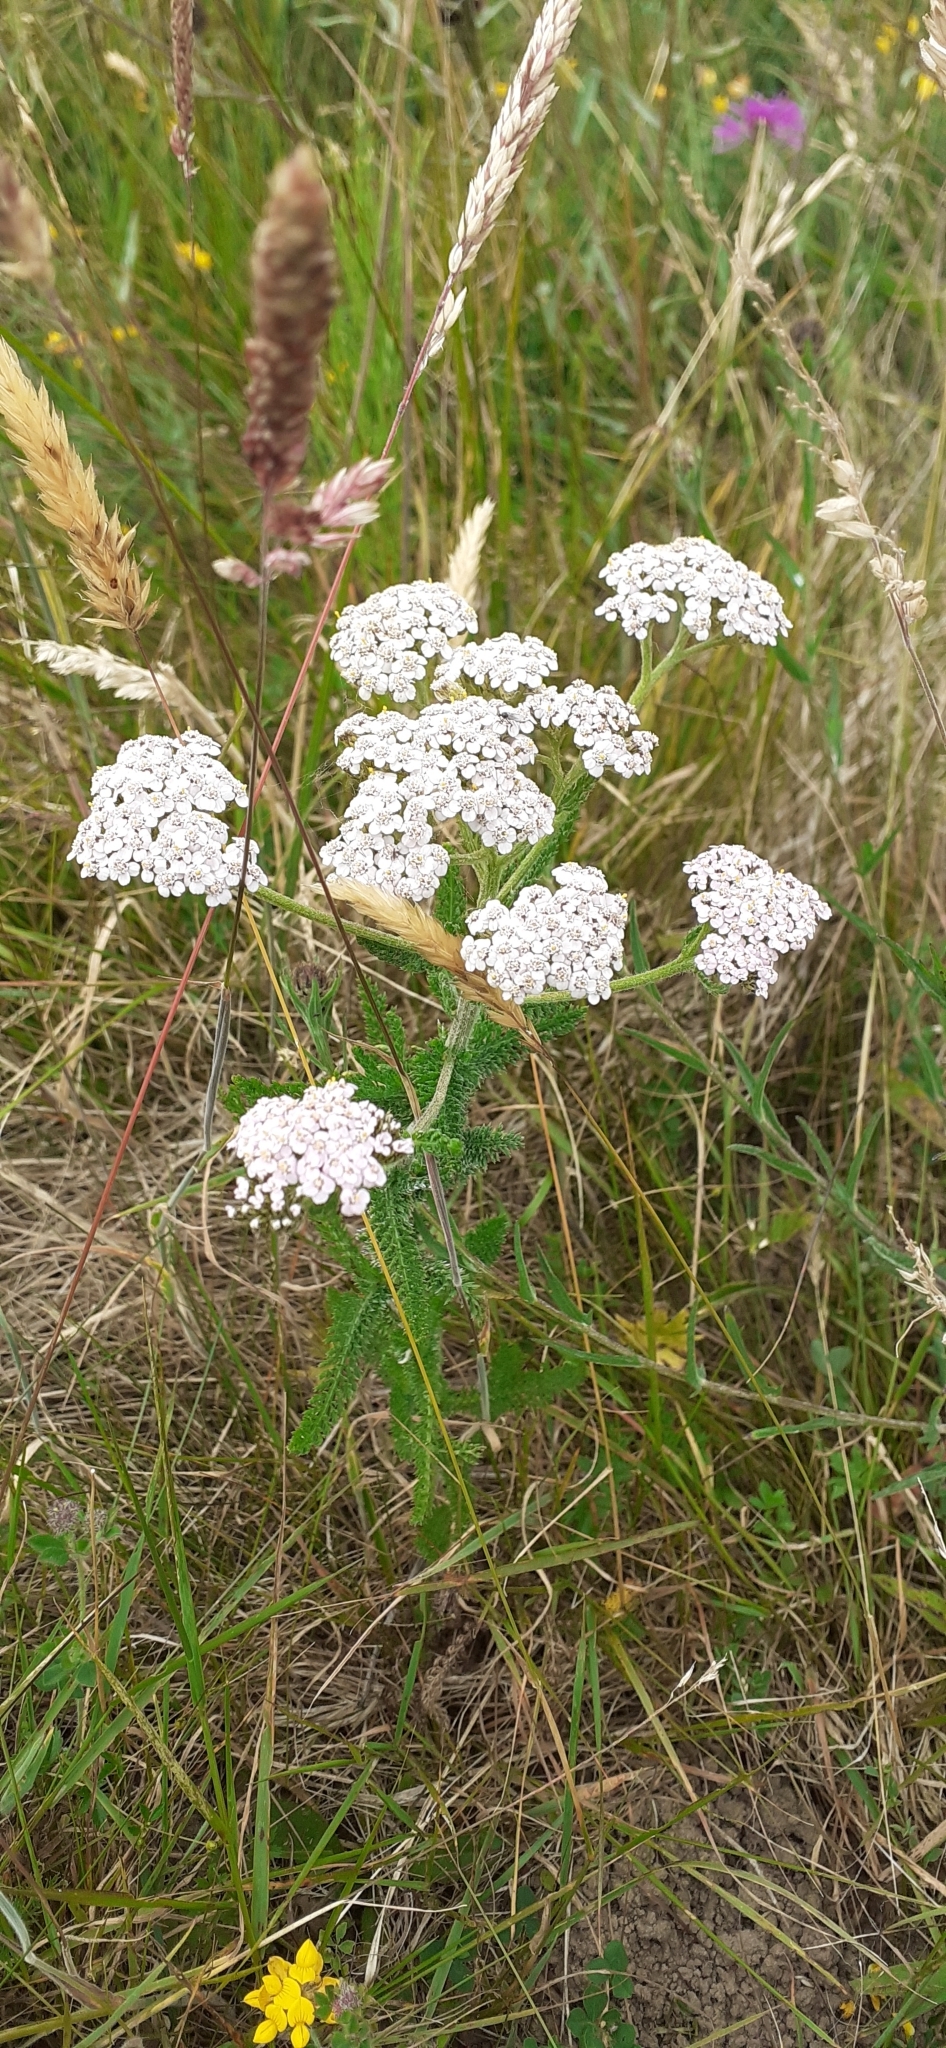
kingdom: Plantae
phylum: Tracheophyta
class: Magnoliopsida
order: Asterales
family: Asteraceae
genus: Achillea
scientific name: Achillea millefolium
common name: Yarrow
